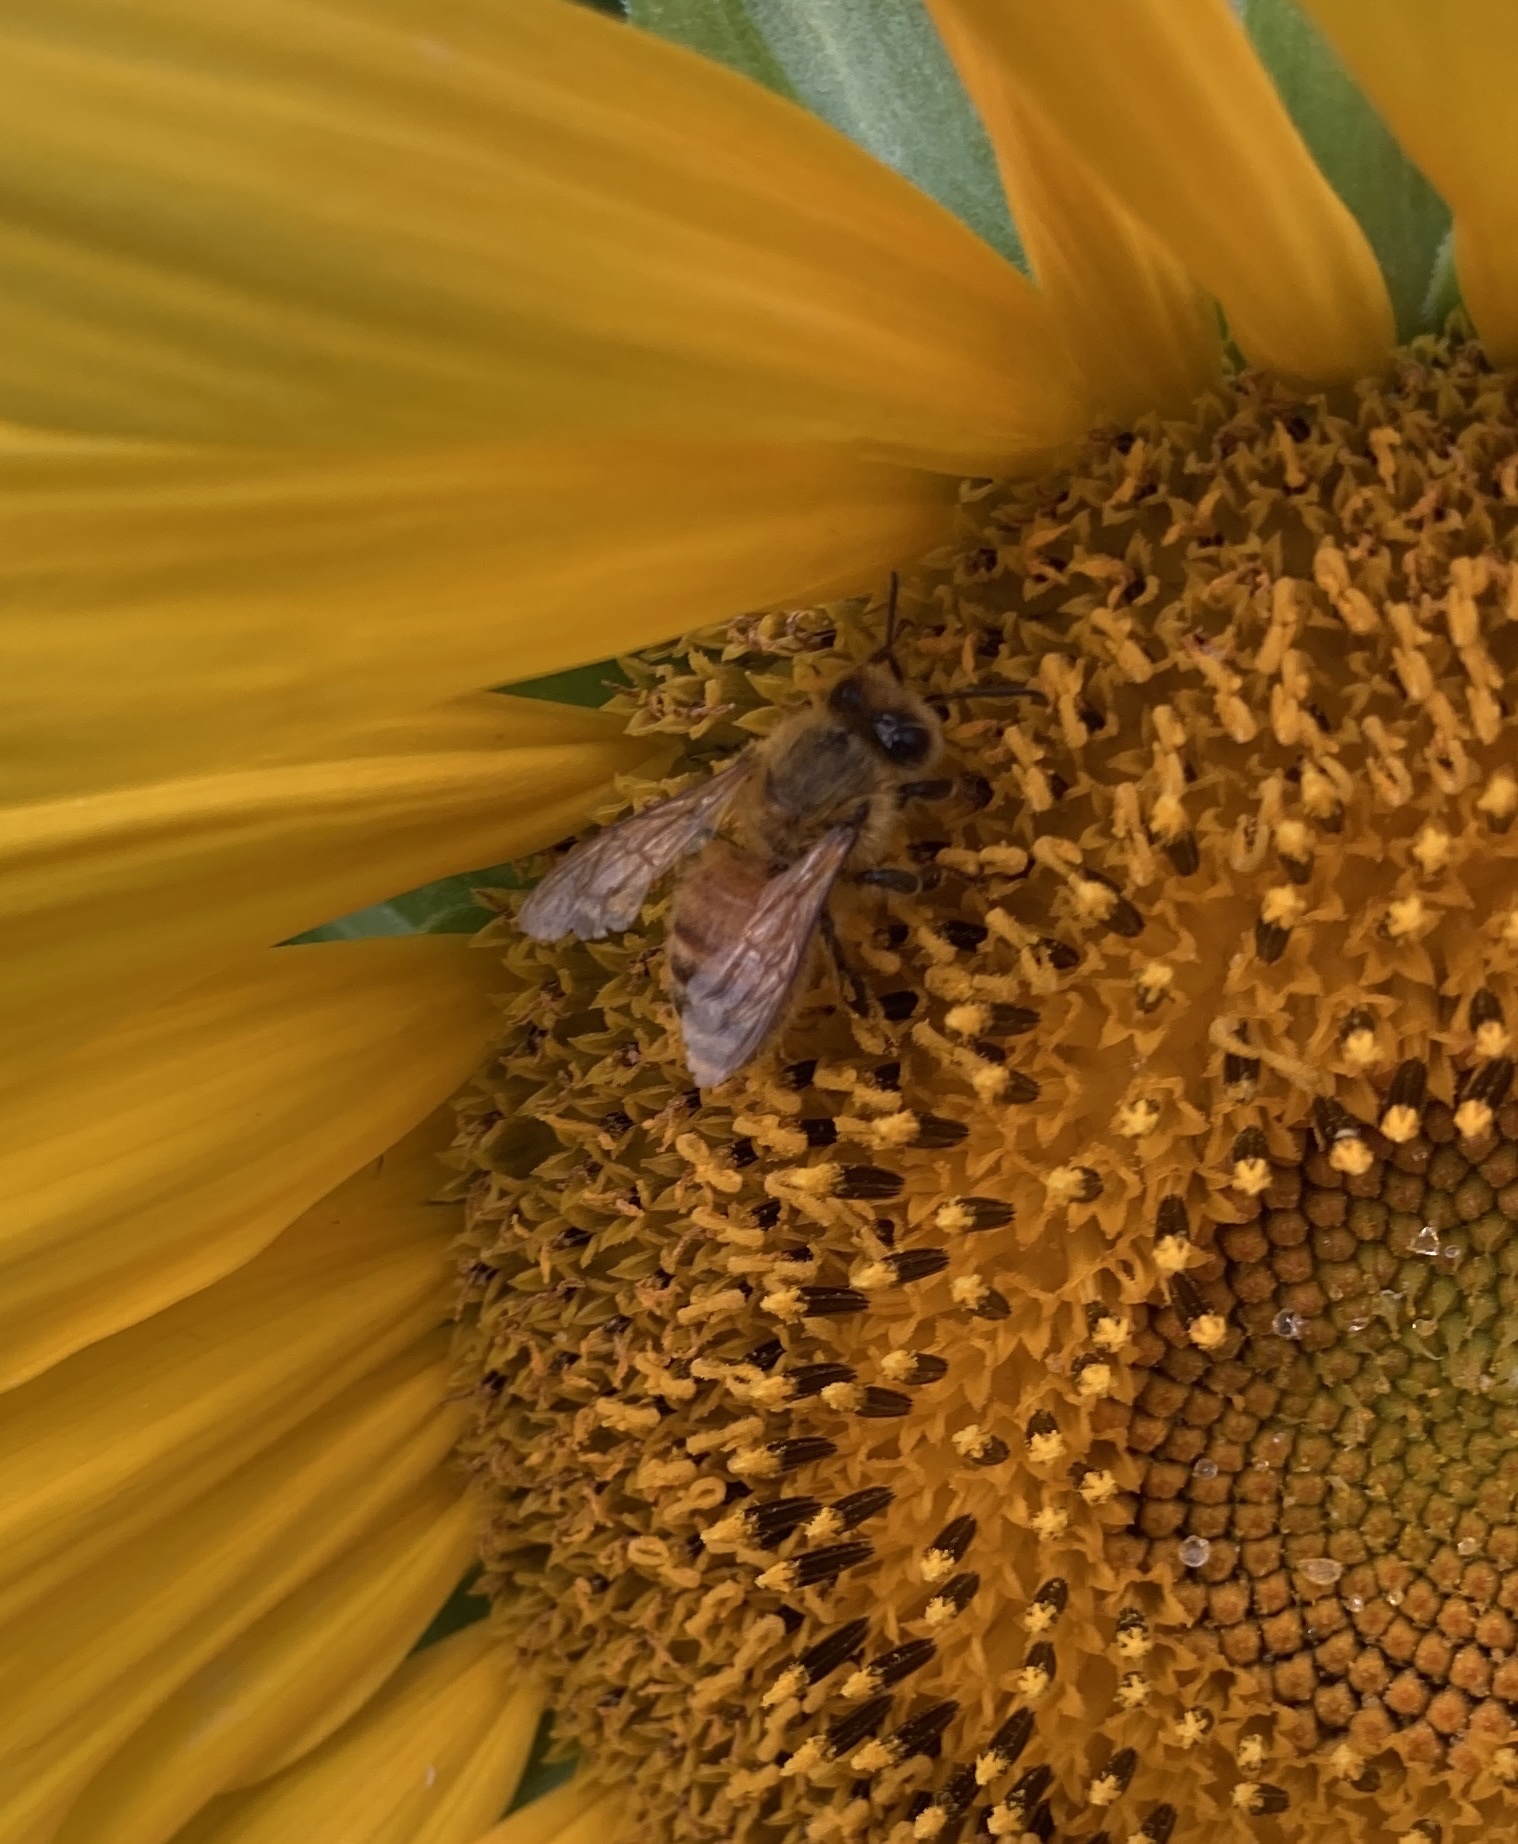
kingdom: Animalia
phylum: Arthropoda
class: Insecta
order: Hymenoptera
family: Apidae
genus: Apis
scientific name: Apis mellifera
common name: Honey bee
